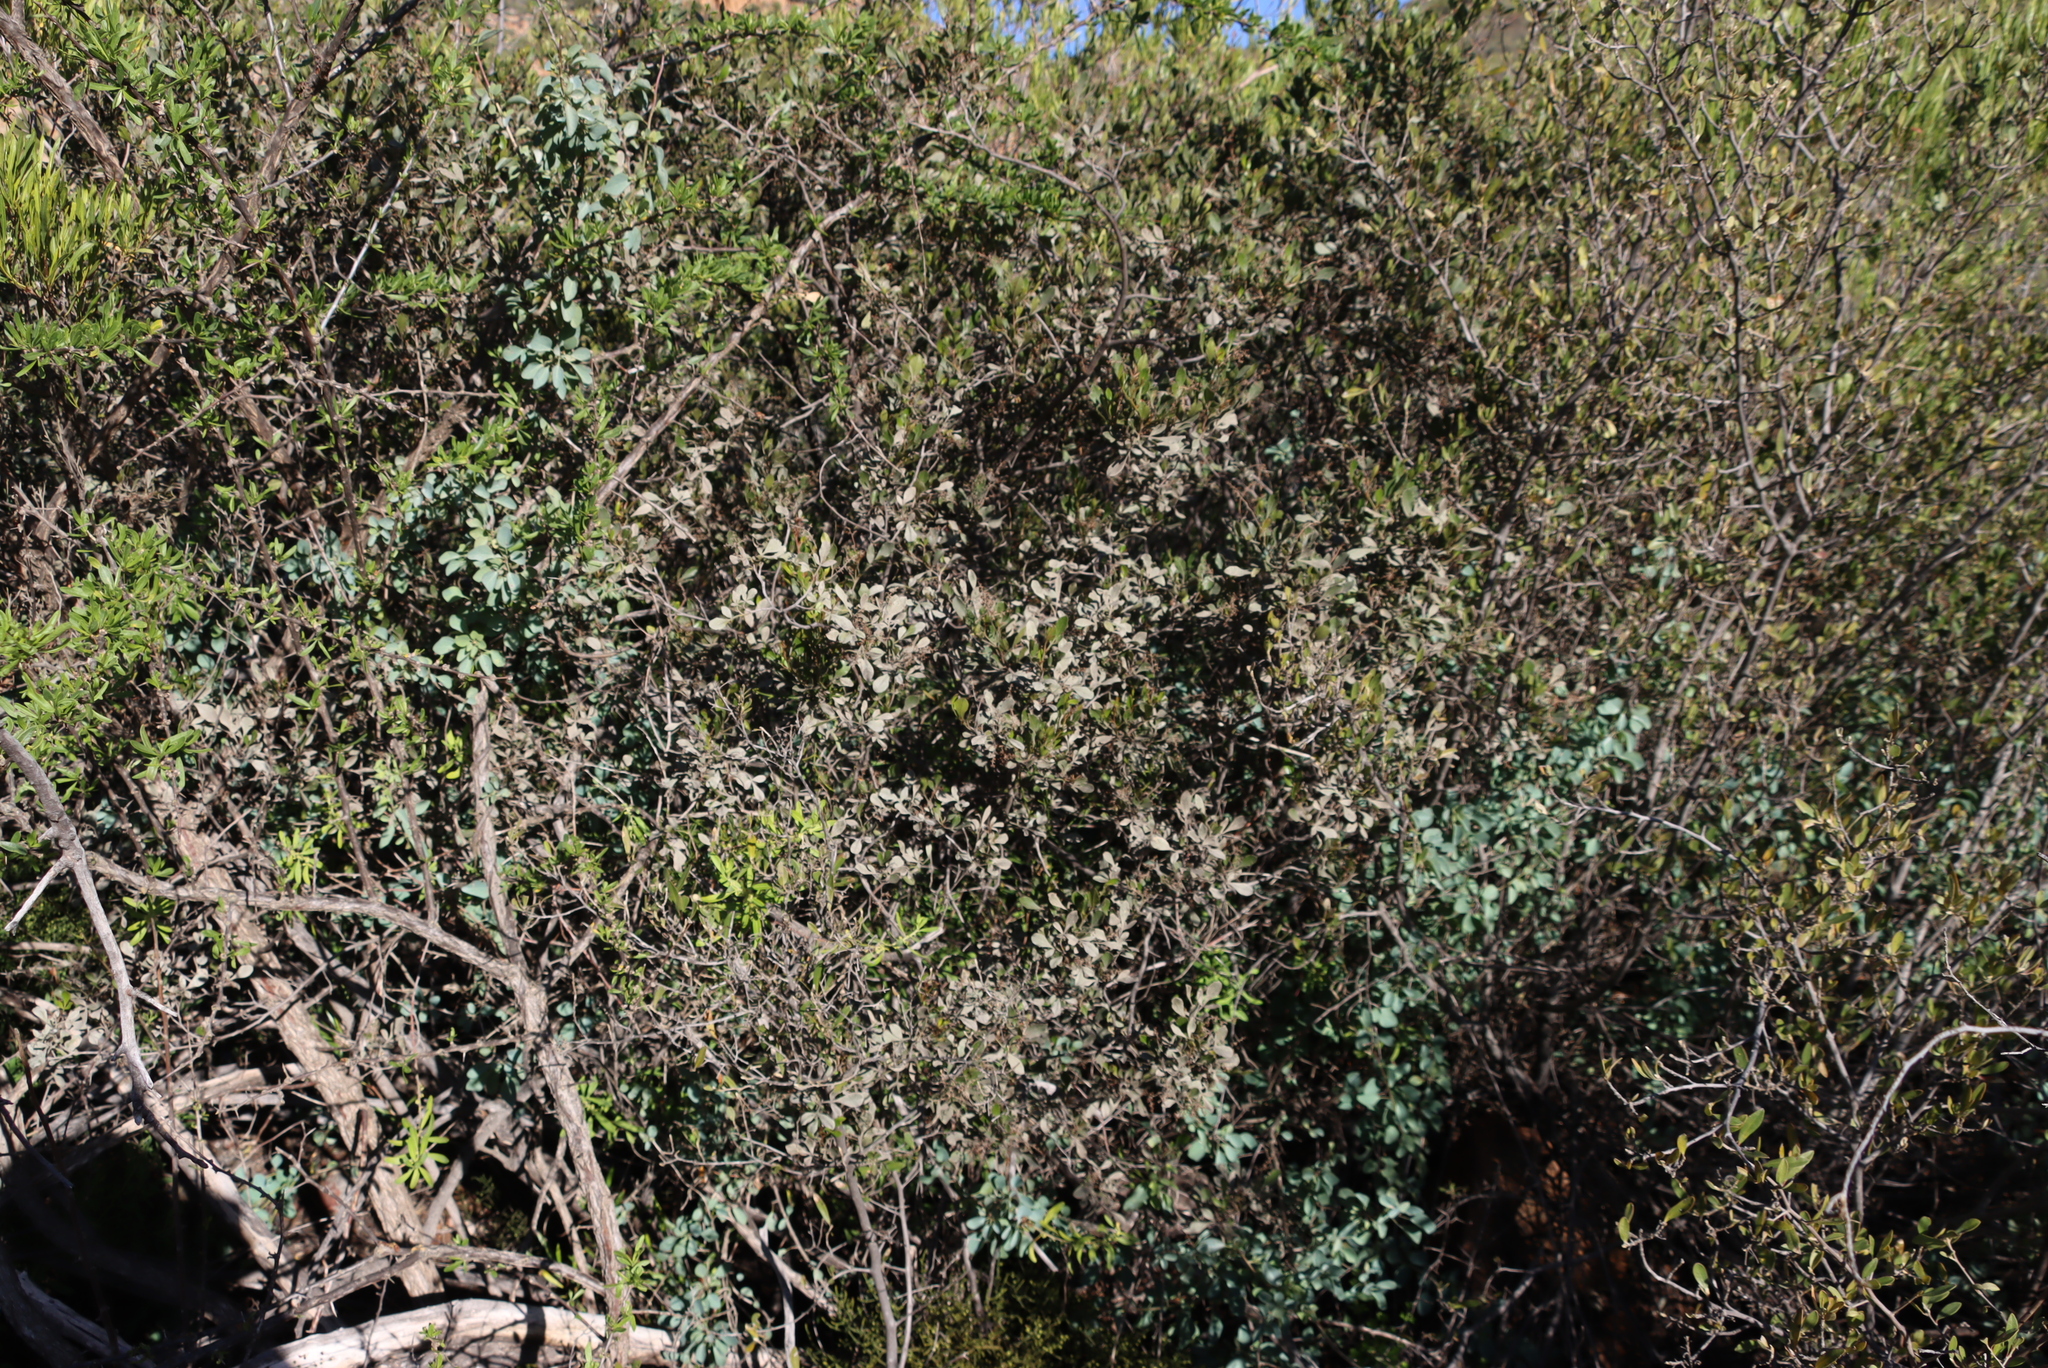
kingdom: Plantae
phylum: Tracheophyta
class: Magnoliopsida
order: Sapindales
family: Anacardiaceae
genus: Searsia
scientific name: Searsia pallens
